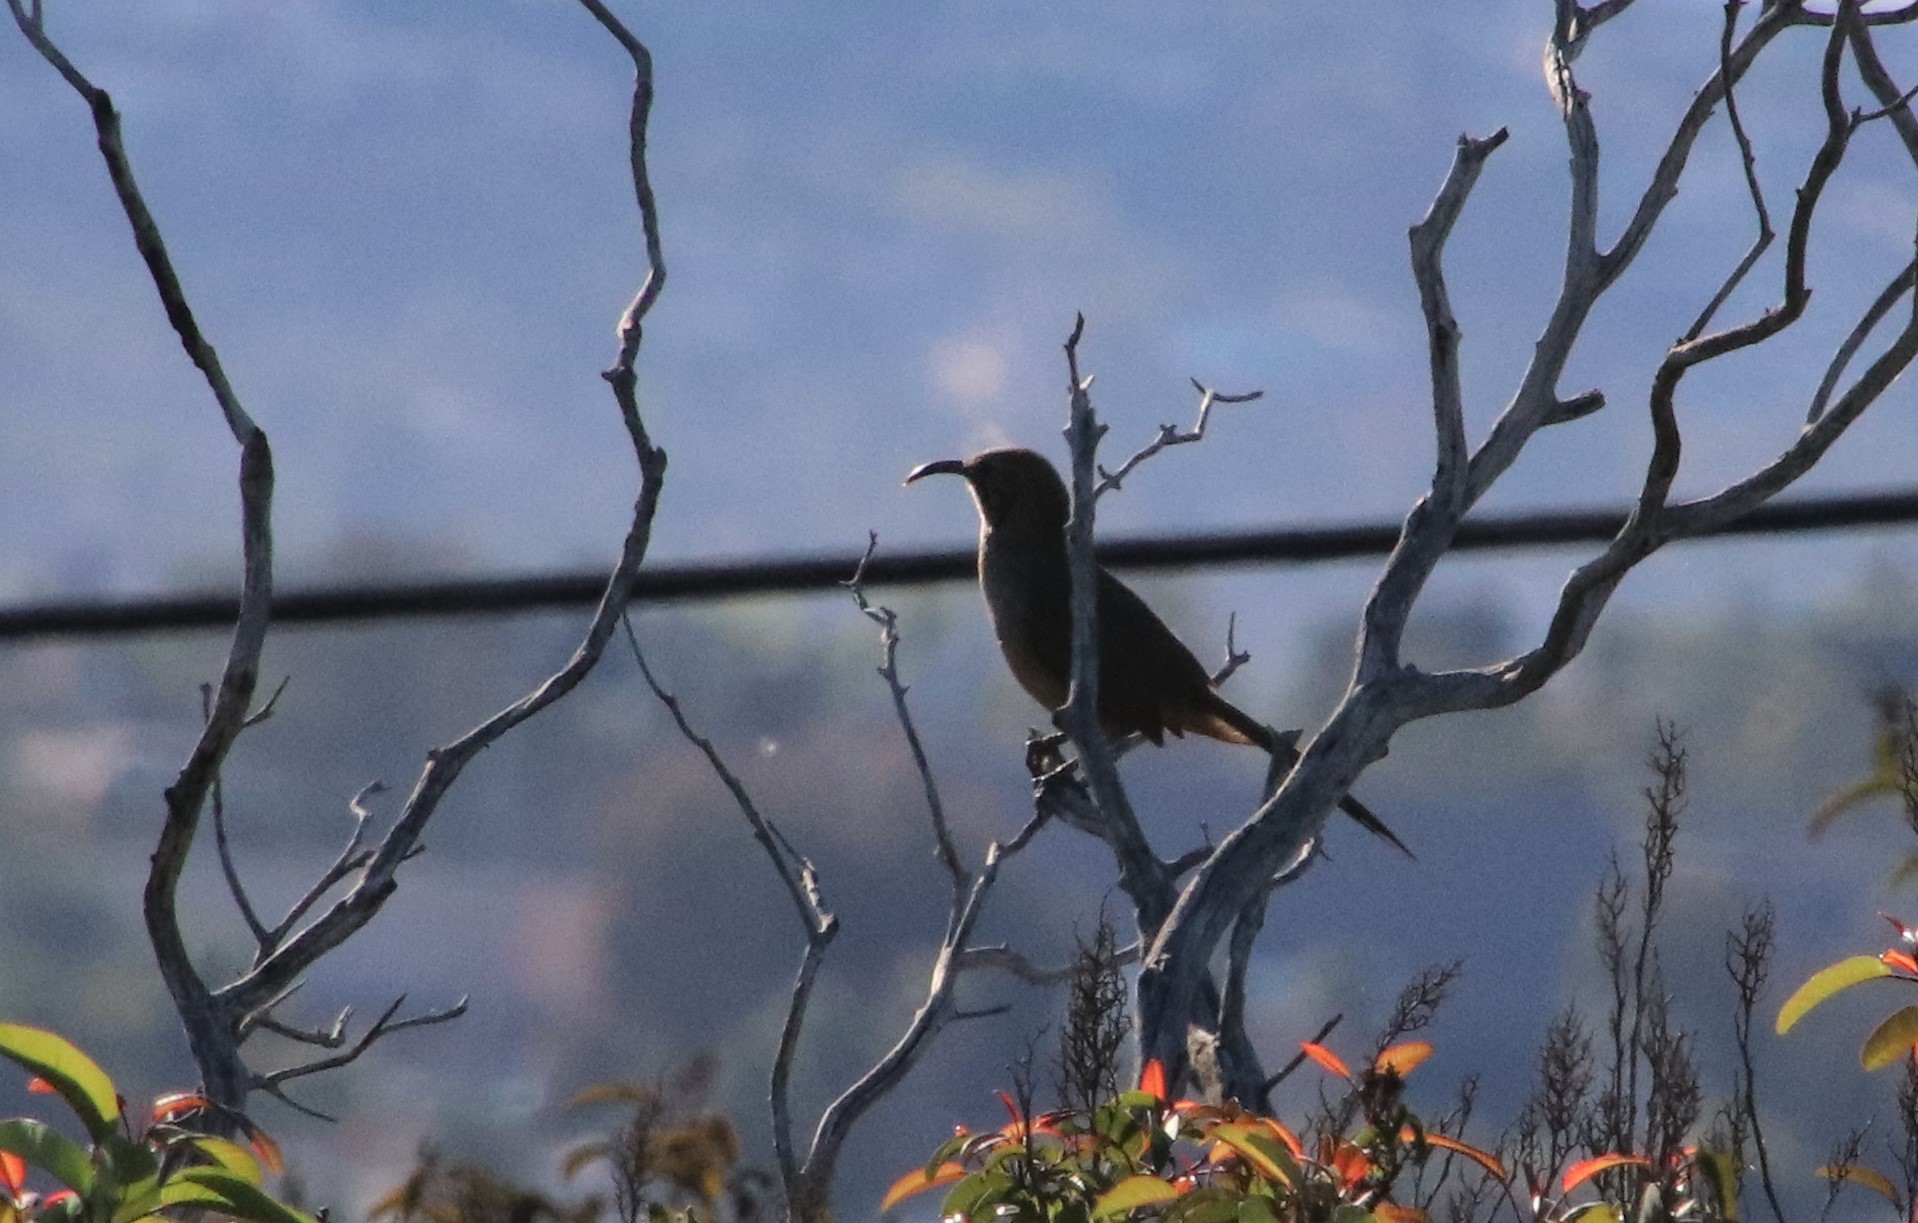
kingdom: Animalia
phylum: Chordata
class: Aves
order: Passeriformes
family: Mimidae
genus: Toxostoma
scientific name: Toxostoma redivivum
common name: California thrasher
